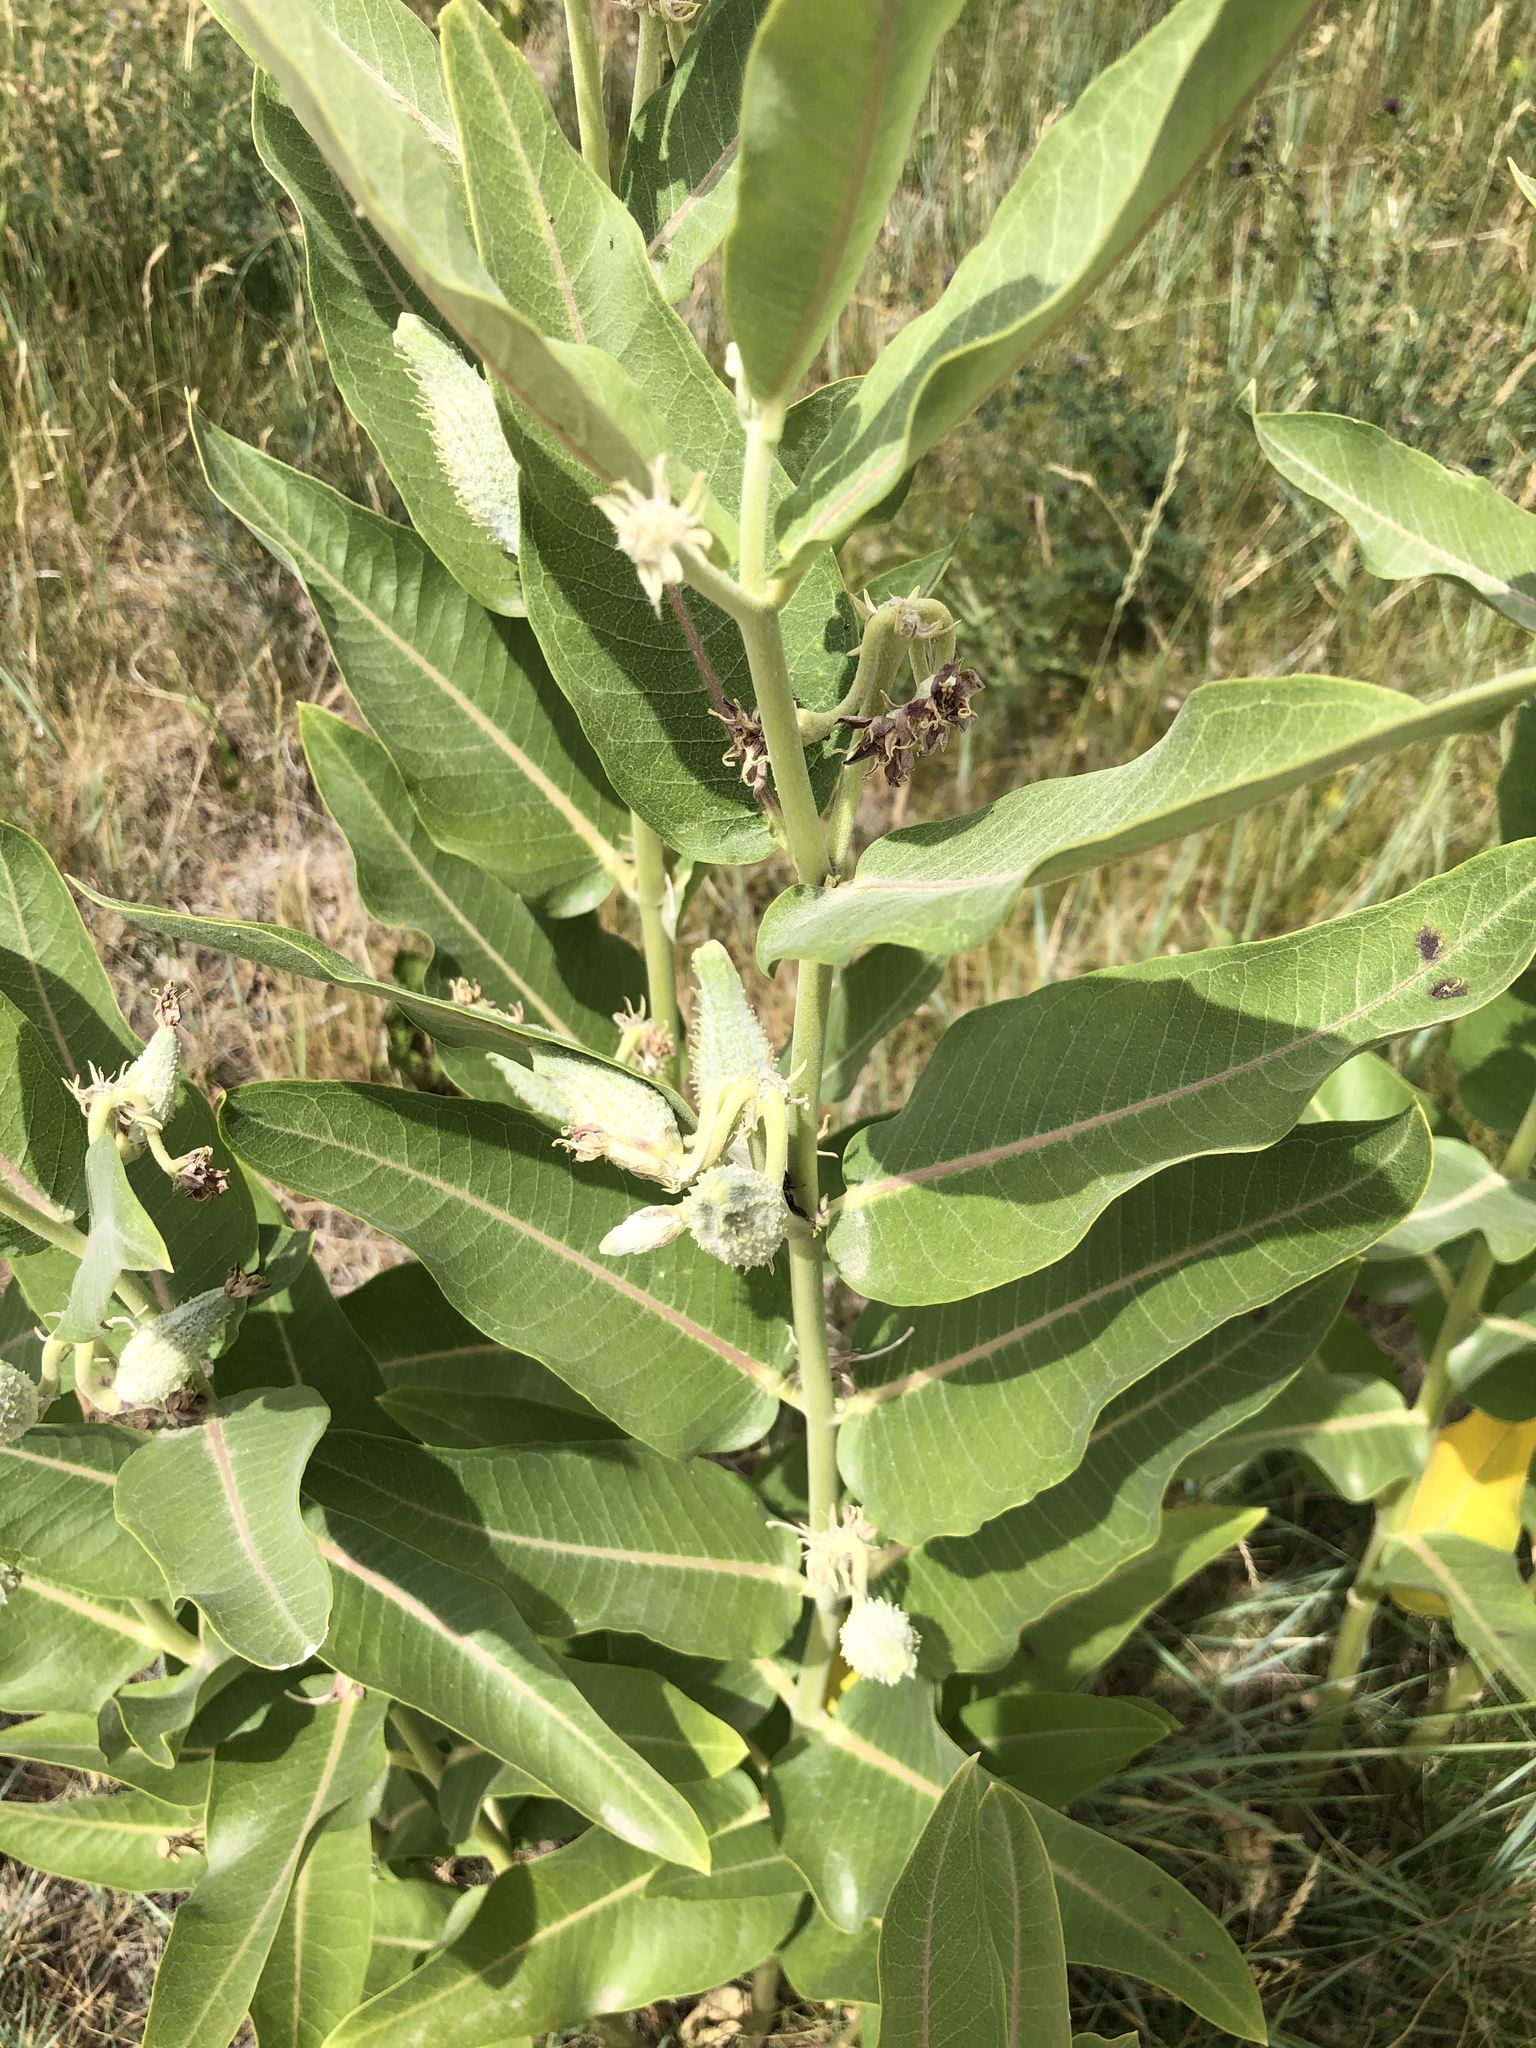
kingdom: Plantae
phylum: Tracheophyta
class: Magnoliopsida
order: Gentianales
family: Apocynaceae
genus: Asclepias
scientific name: Asclepias speciosa
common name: Showy milkweed
